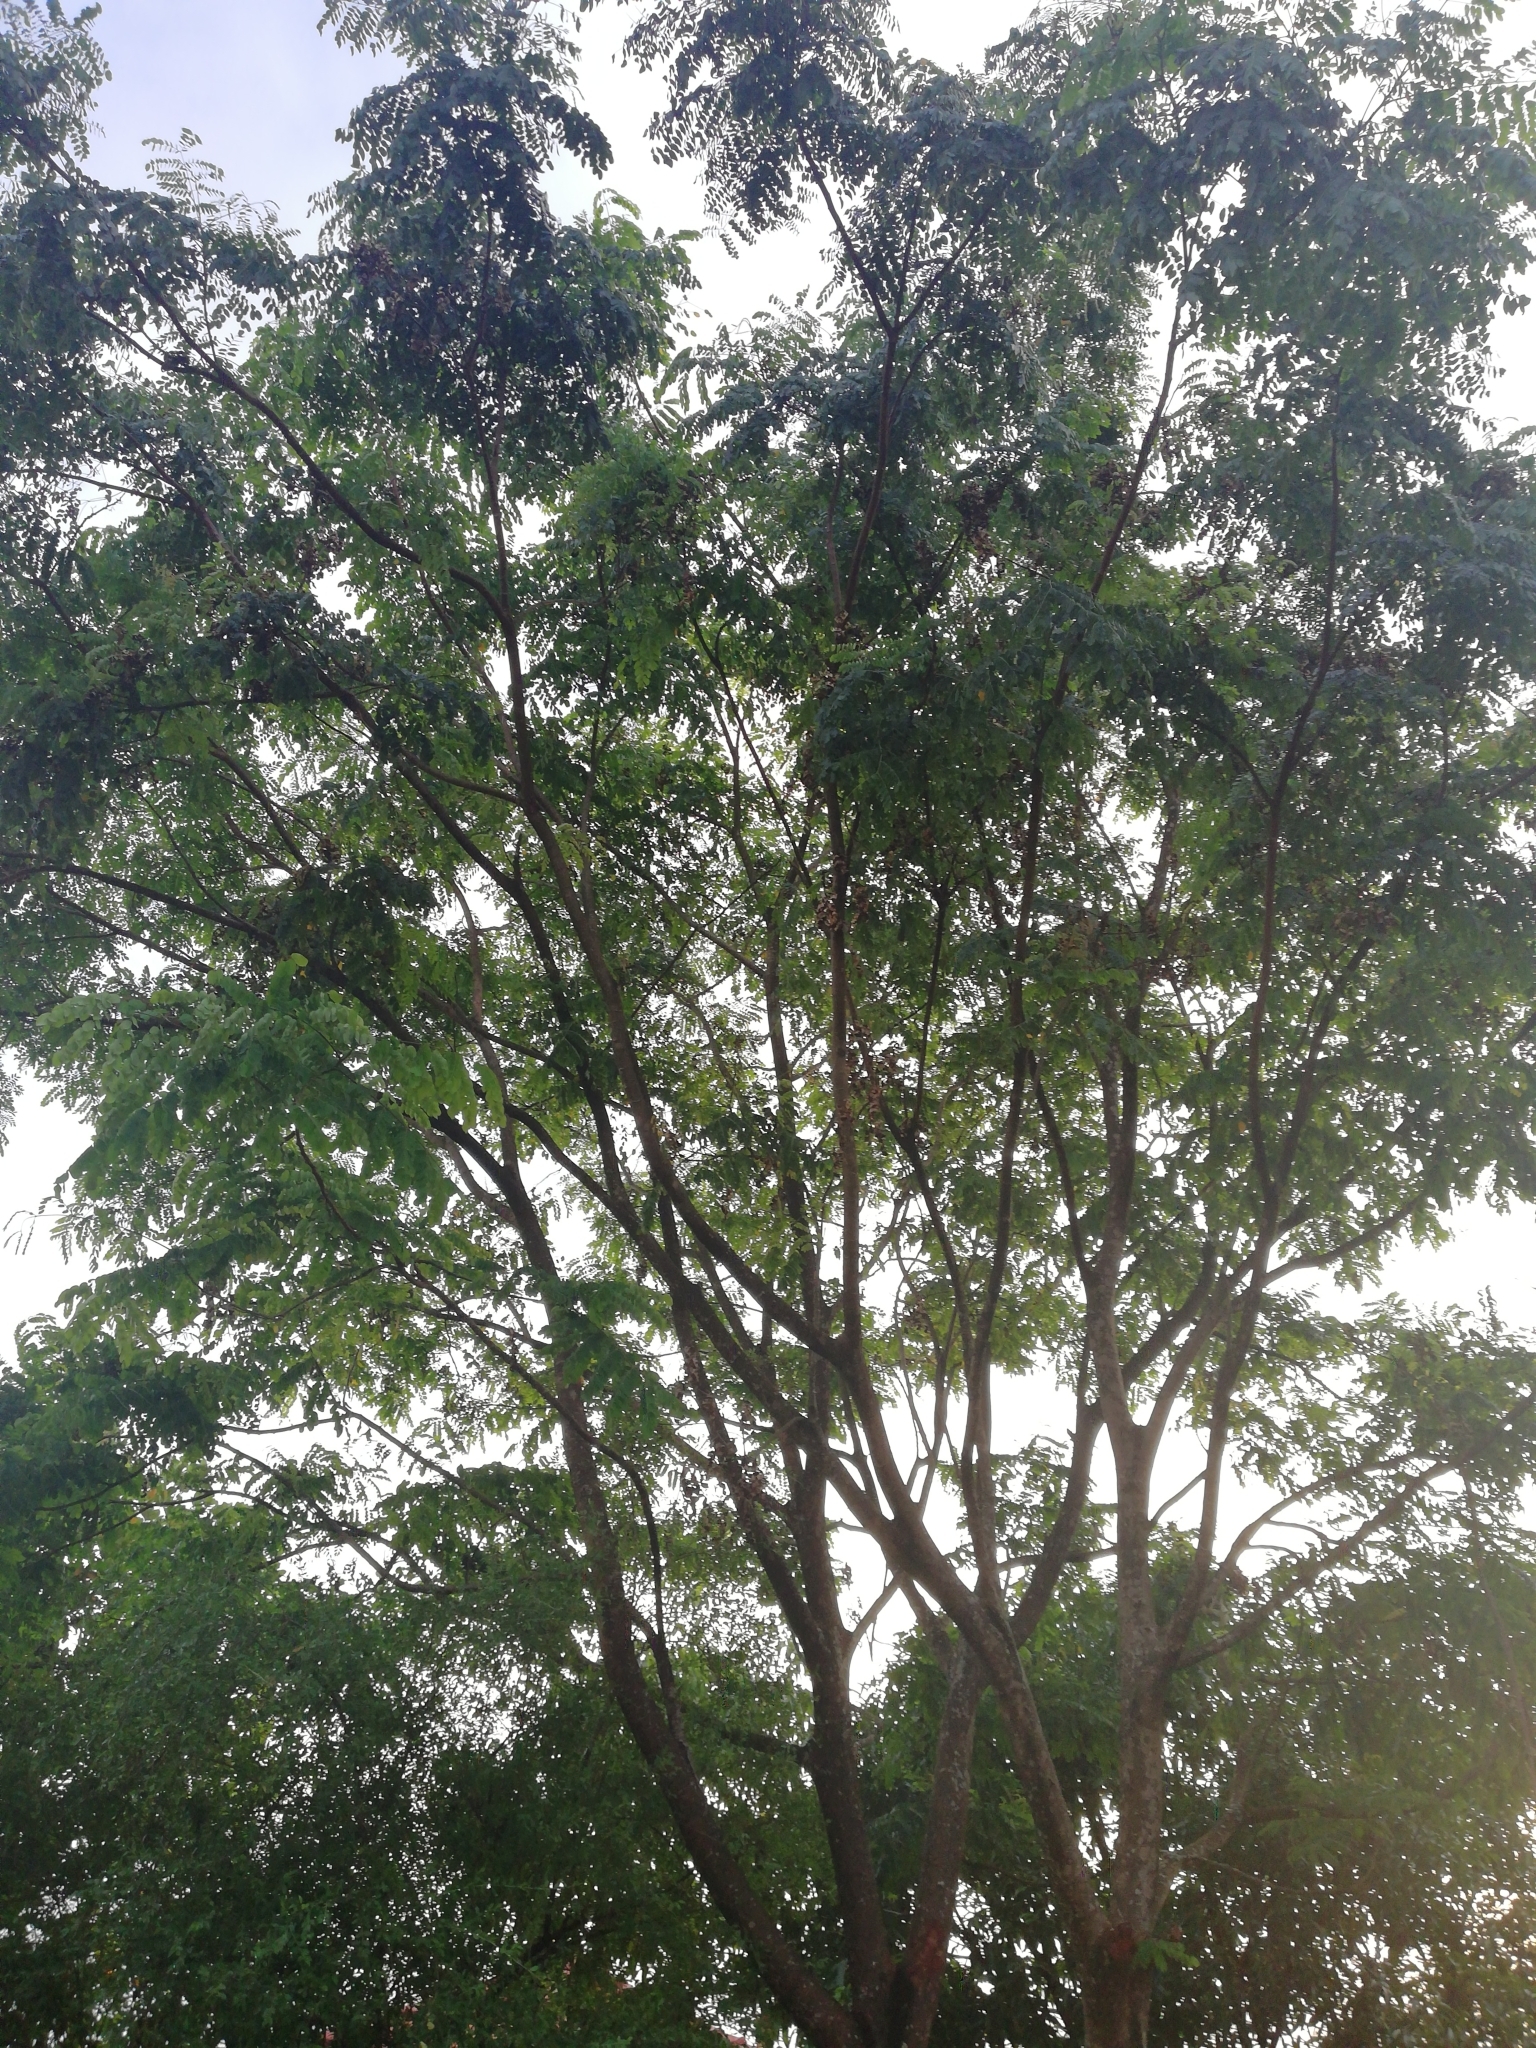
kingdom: Plantae
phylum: Tracheophyta
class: Magnoliopsida
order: Fabales
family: Fabaceae
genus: Adenanthera
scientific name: Adenanthera pavonina
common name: Red beadtree
